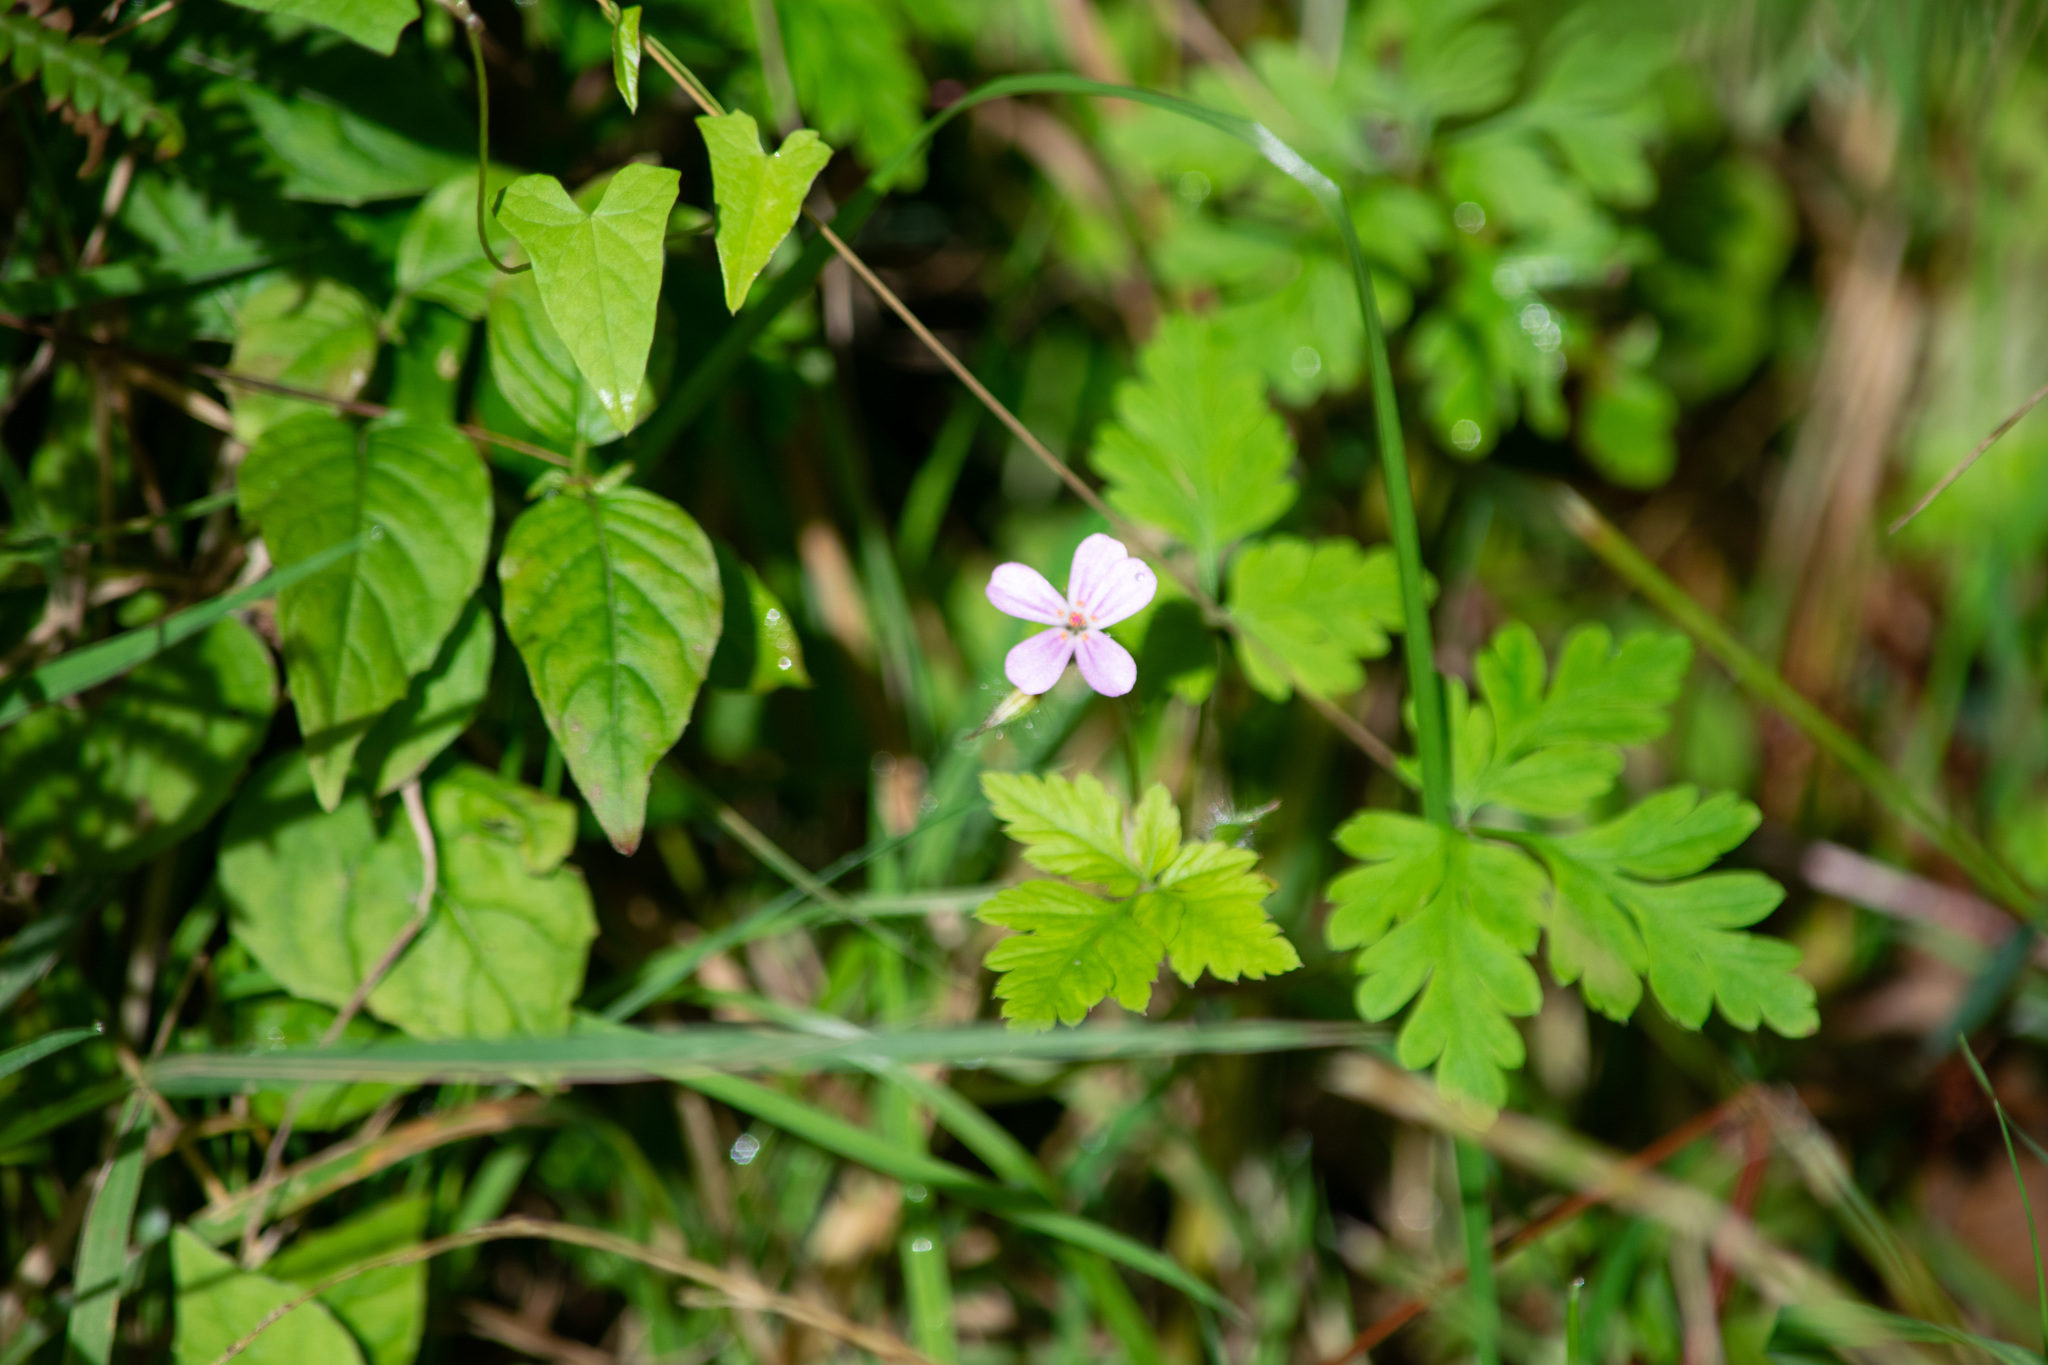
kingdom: Plantae
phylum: Tracheophyta
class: Magnoliopsida
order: Geraniales
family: Geraniaceae
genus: Geranium
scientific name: Geranium robertianum
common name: Herb-robert
